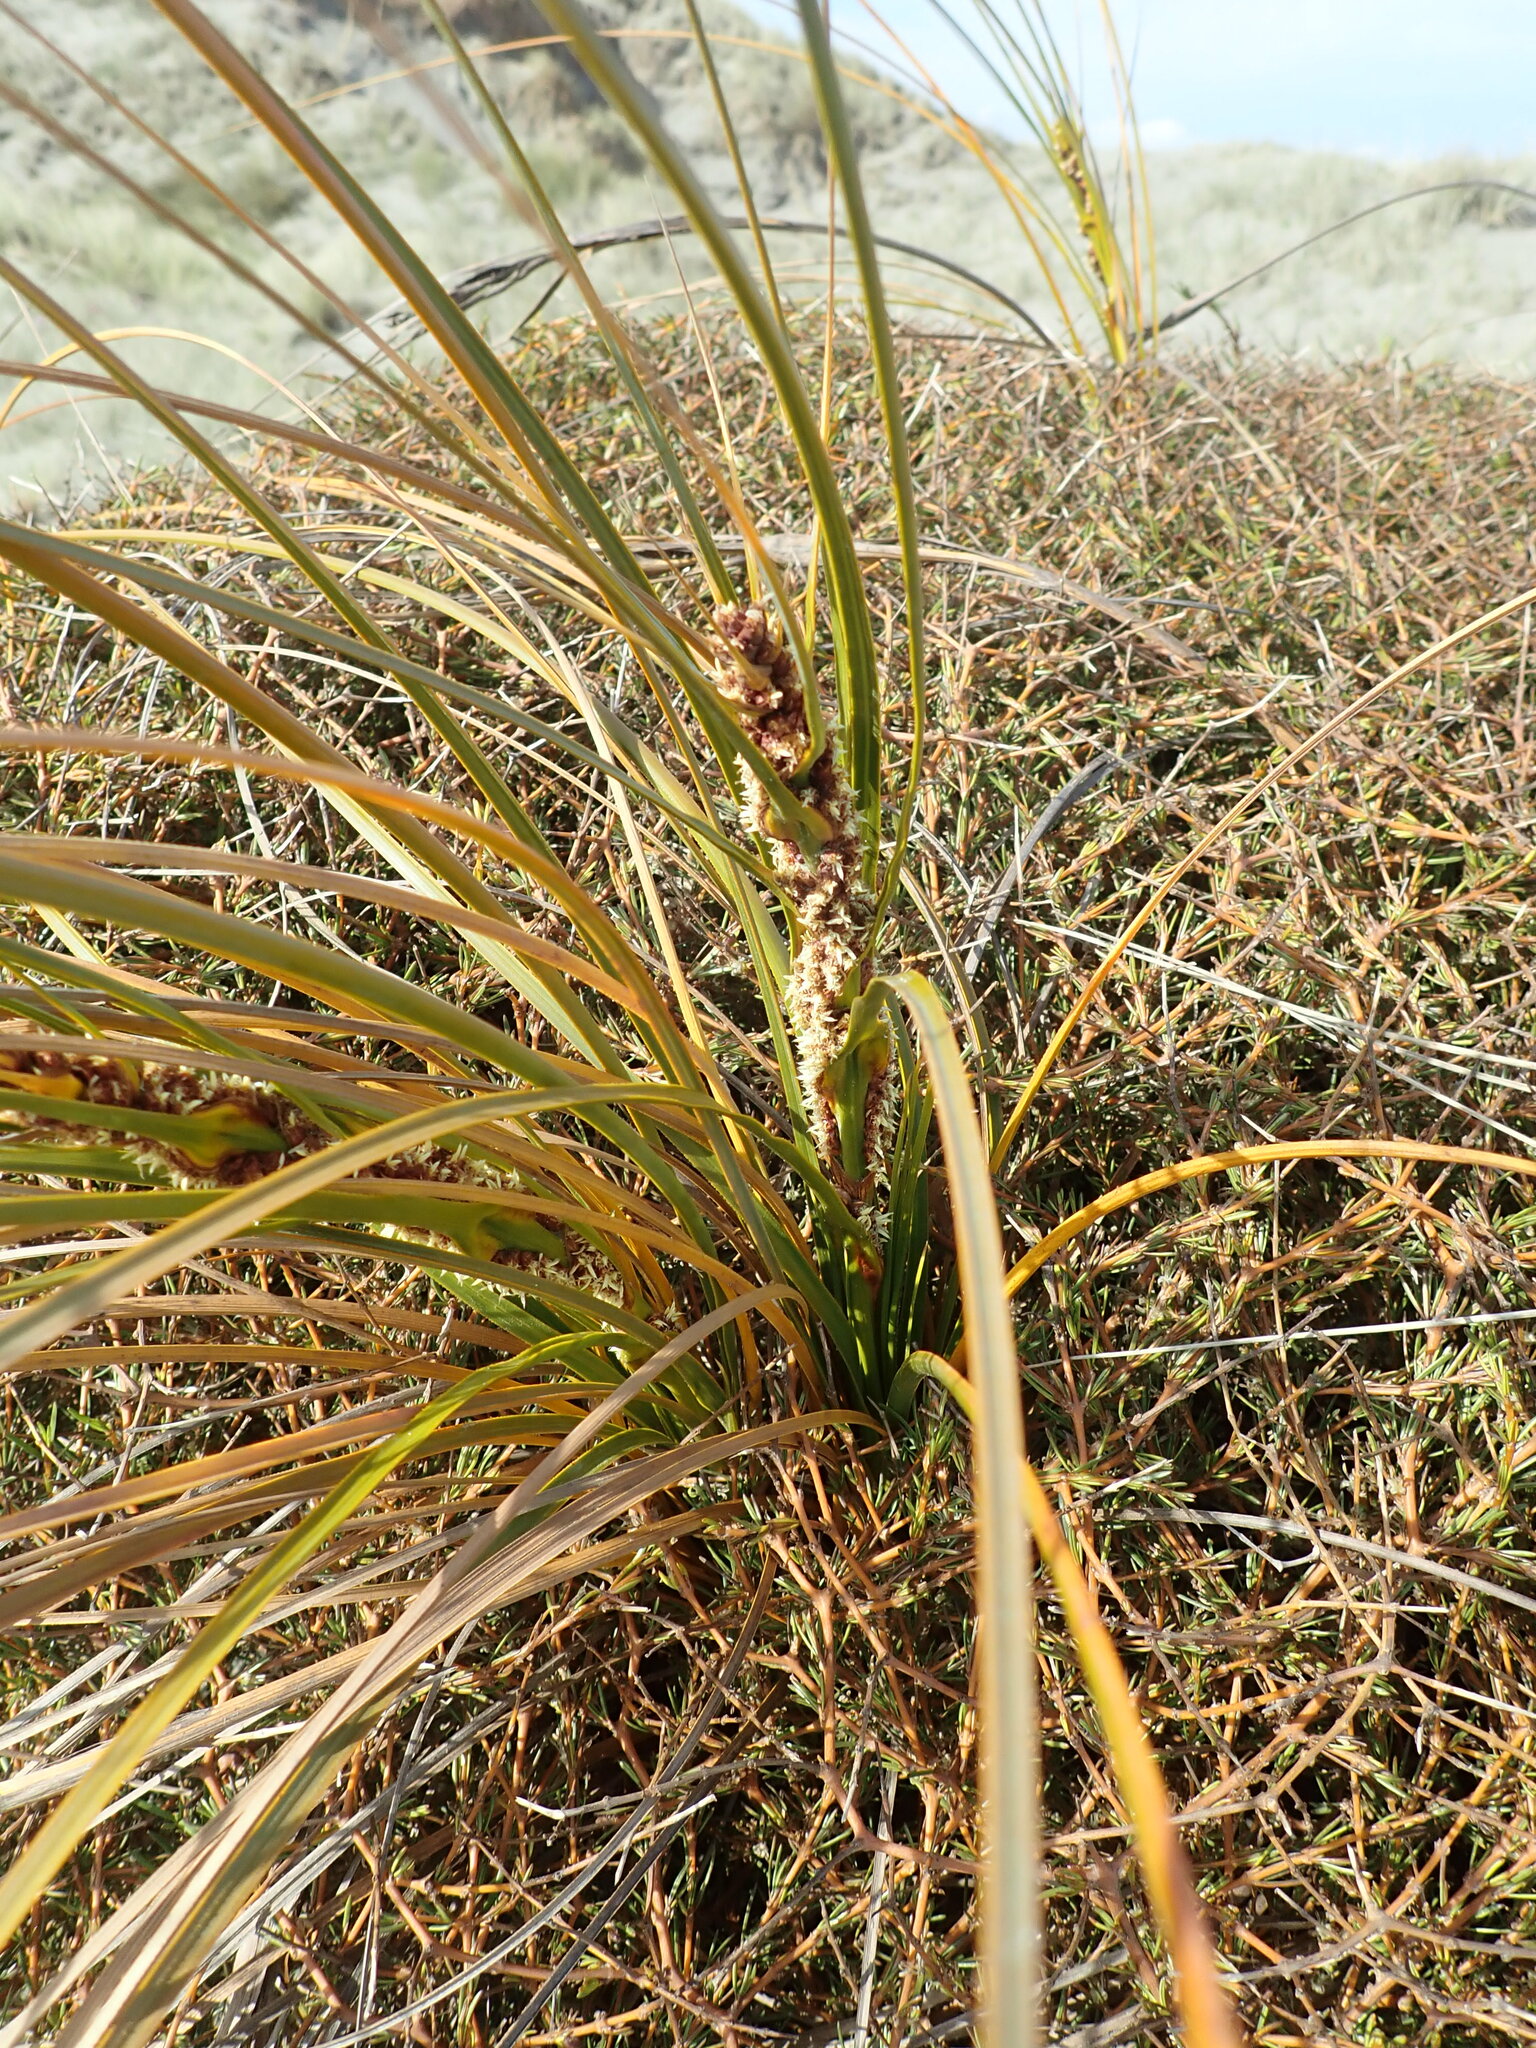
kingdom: Plantae
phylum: Tracheophyta
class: Liliopsida
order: Poales
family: Cyperaceae
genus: Ficinia
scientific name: Ficinia spiralis
